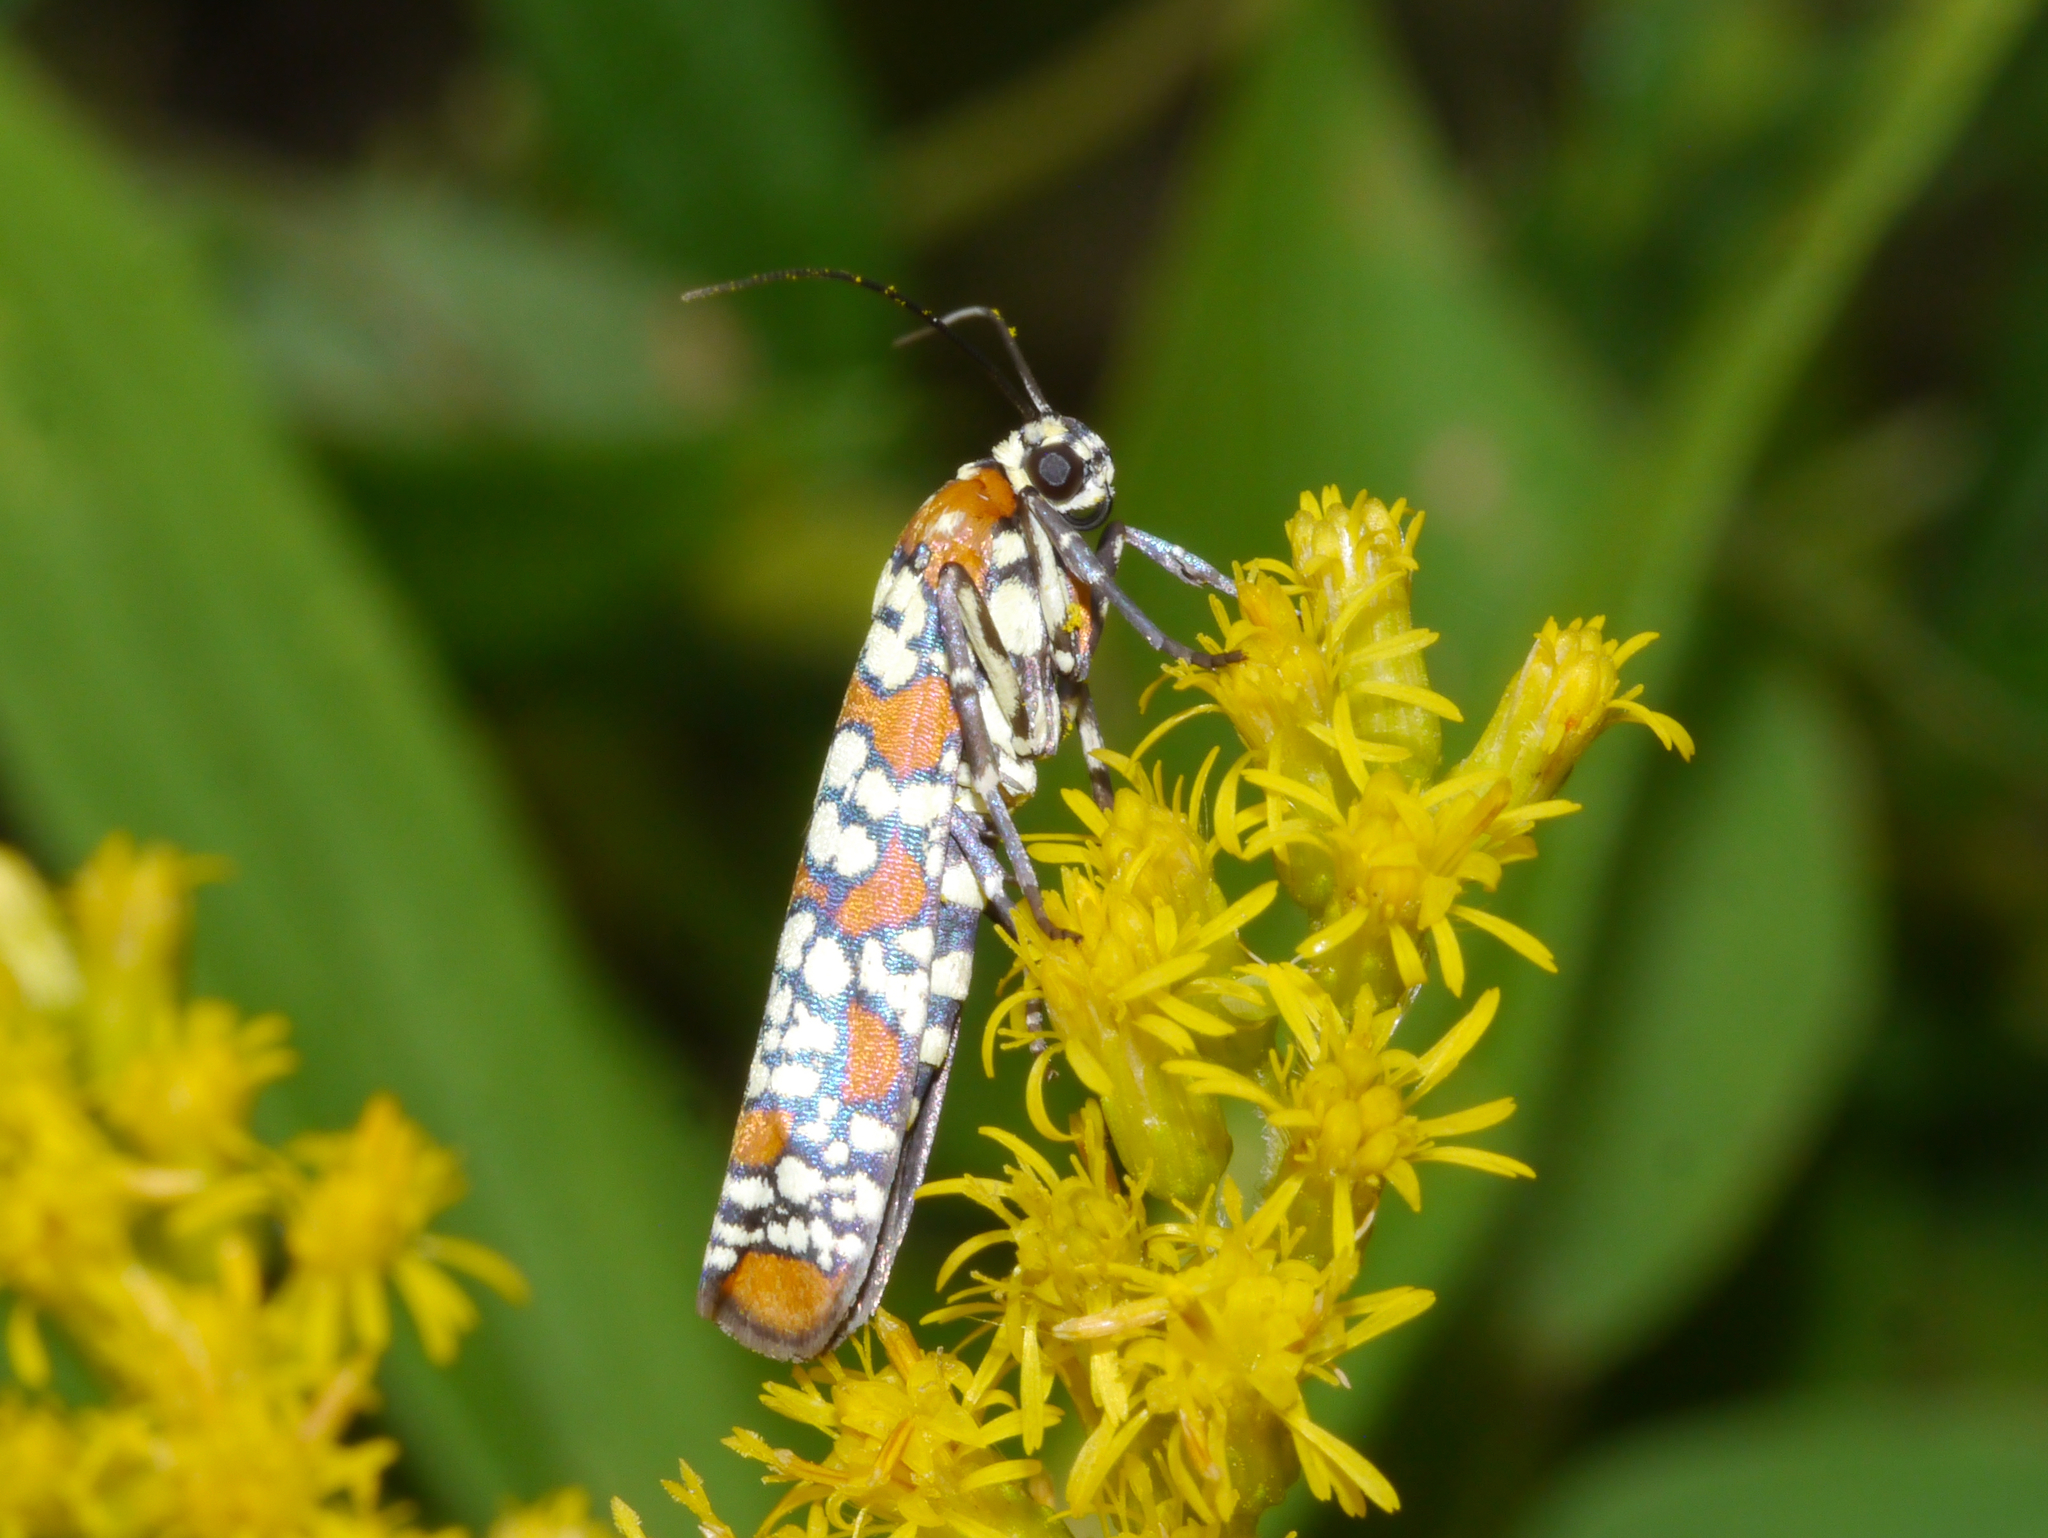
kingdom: Animalia
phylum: Arthropoda
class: Insecta
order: Lepidoptera
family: Attevidae
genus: Atteva
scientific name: Atteva punctella
